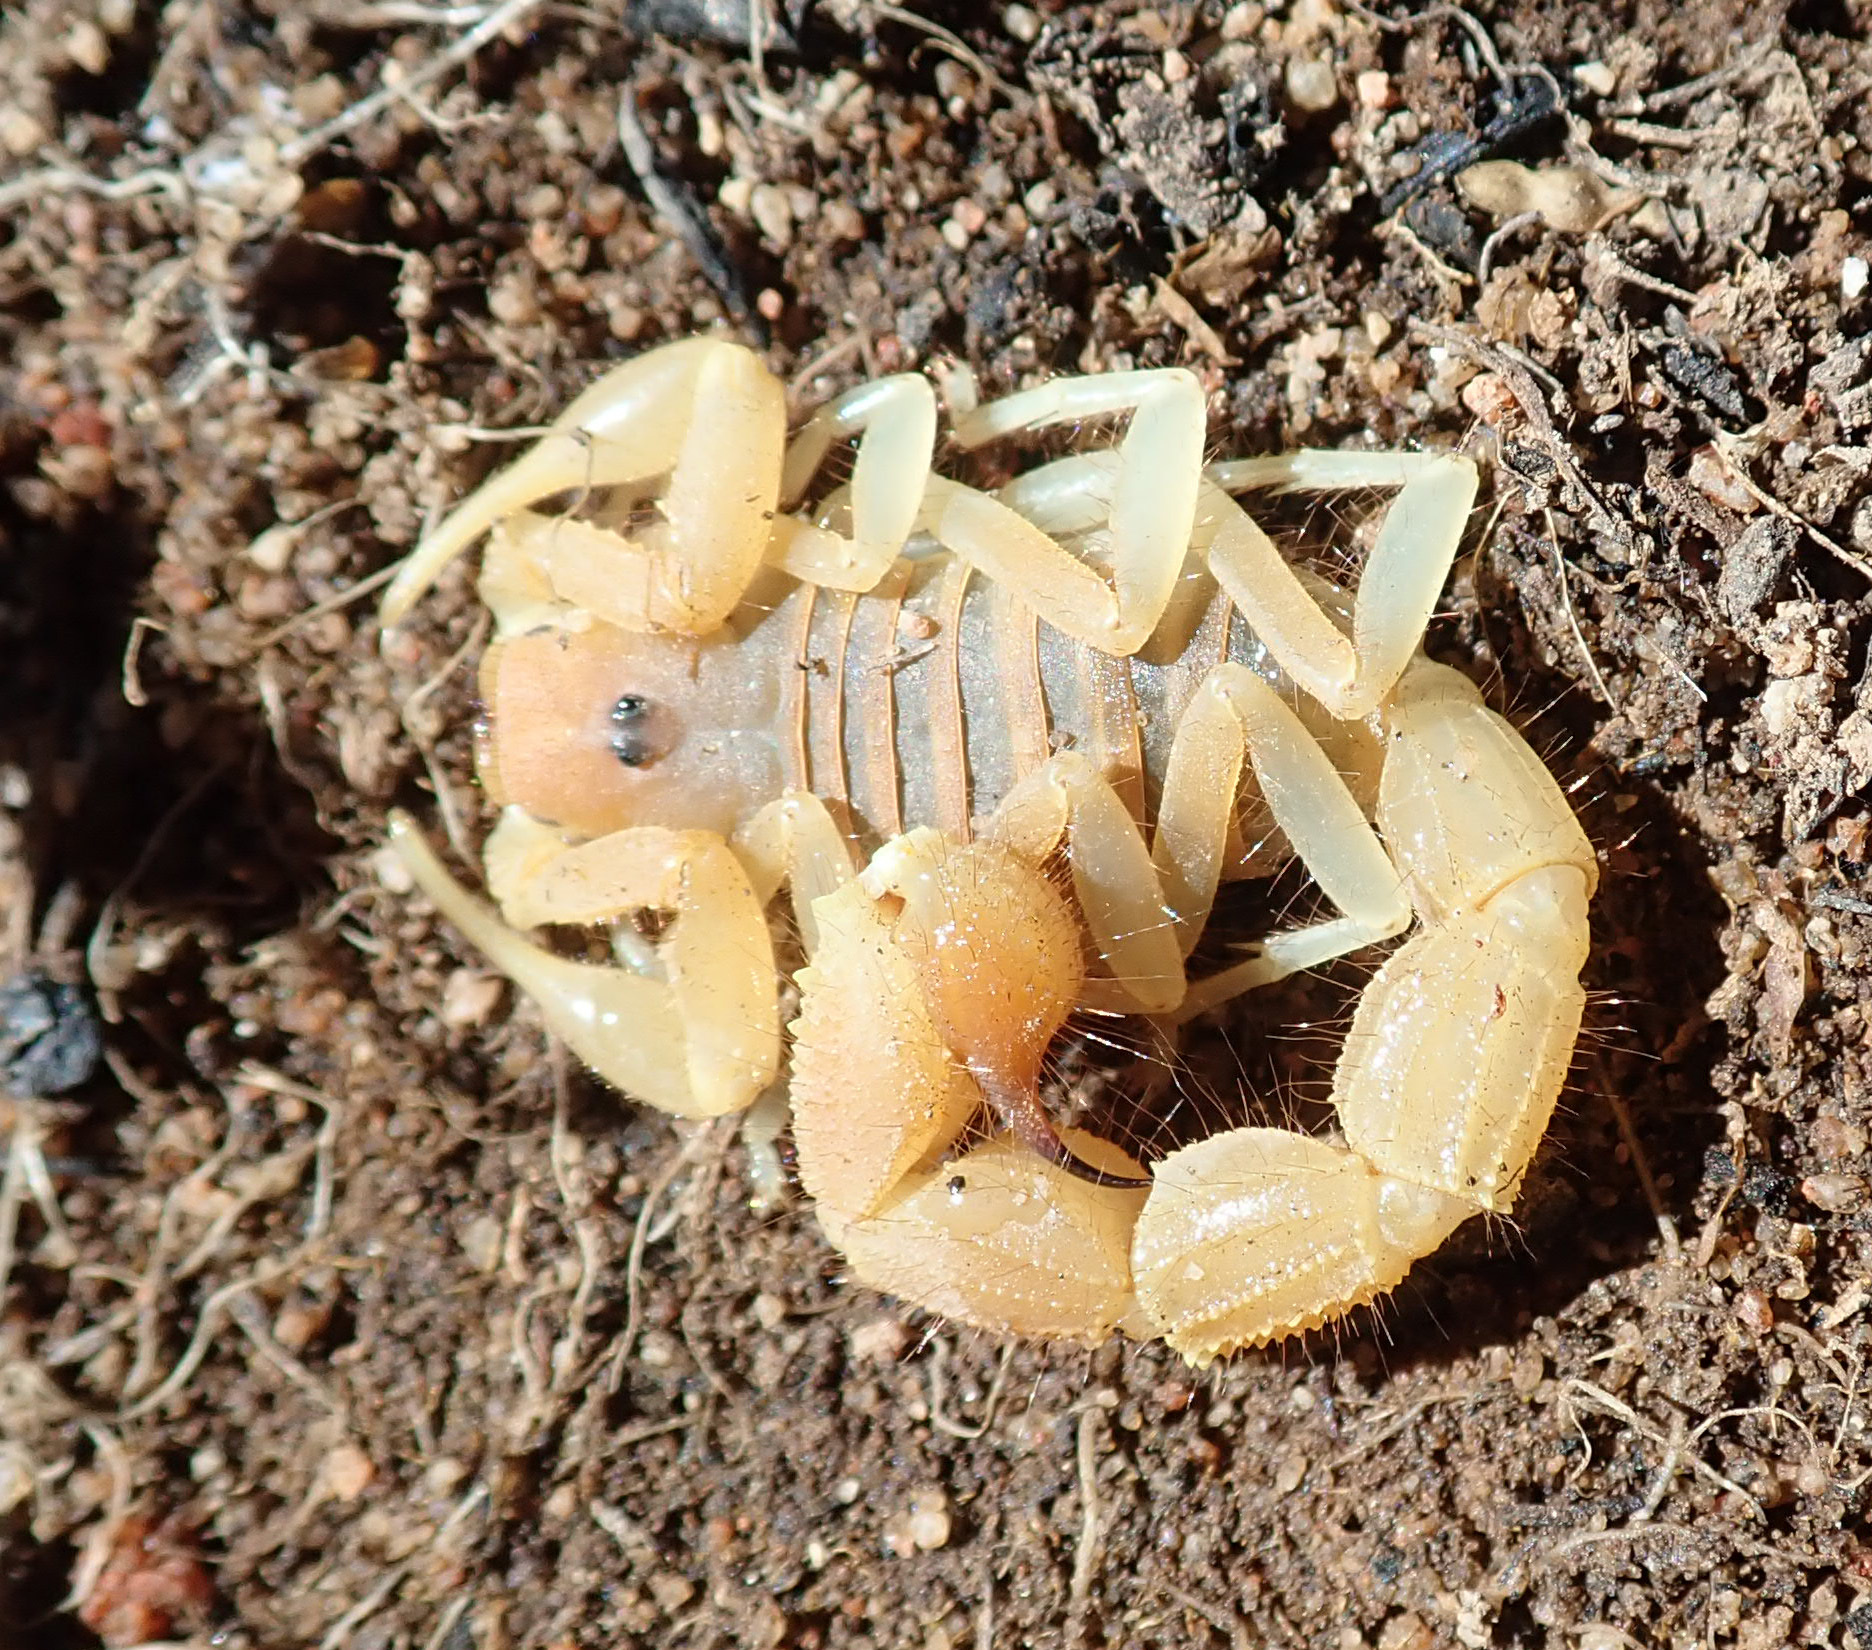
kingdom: Animalia
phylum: Arthropoda
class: Arachnida
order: Scorpiones
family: Buthidae
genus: Parabuthus
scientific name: Parabuthus capensis
